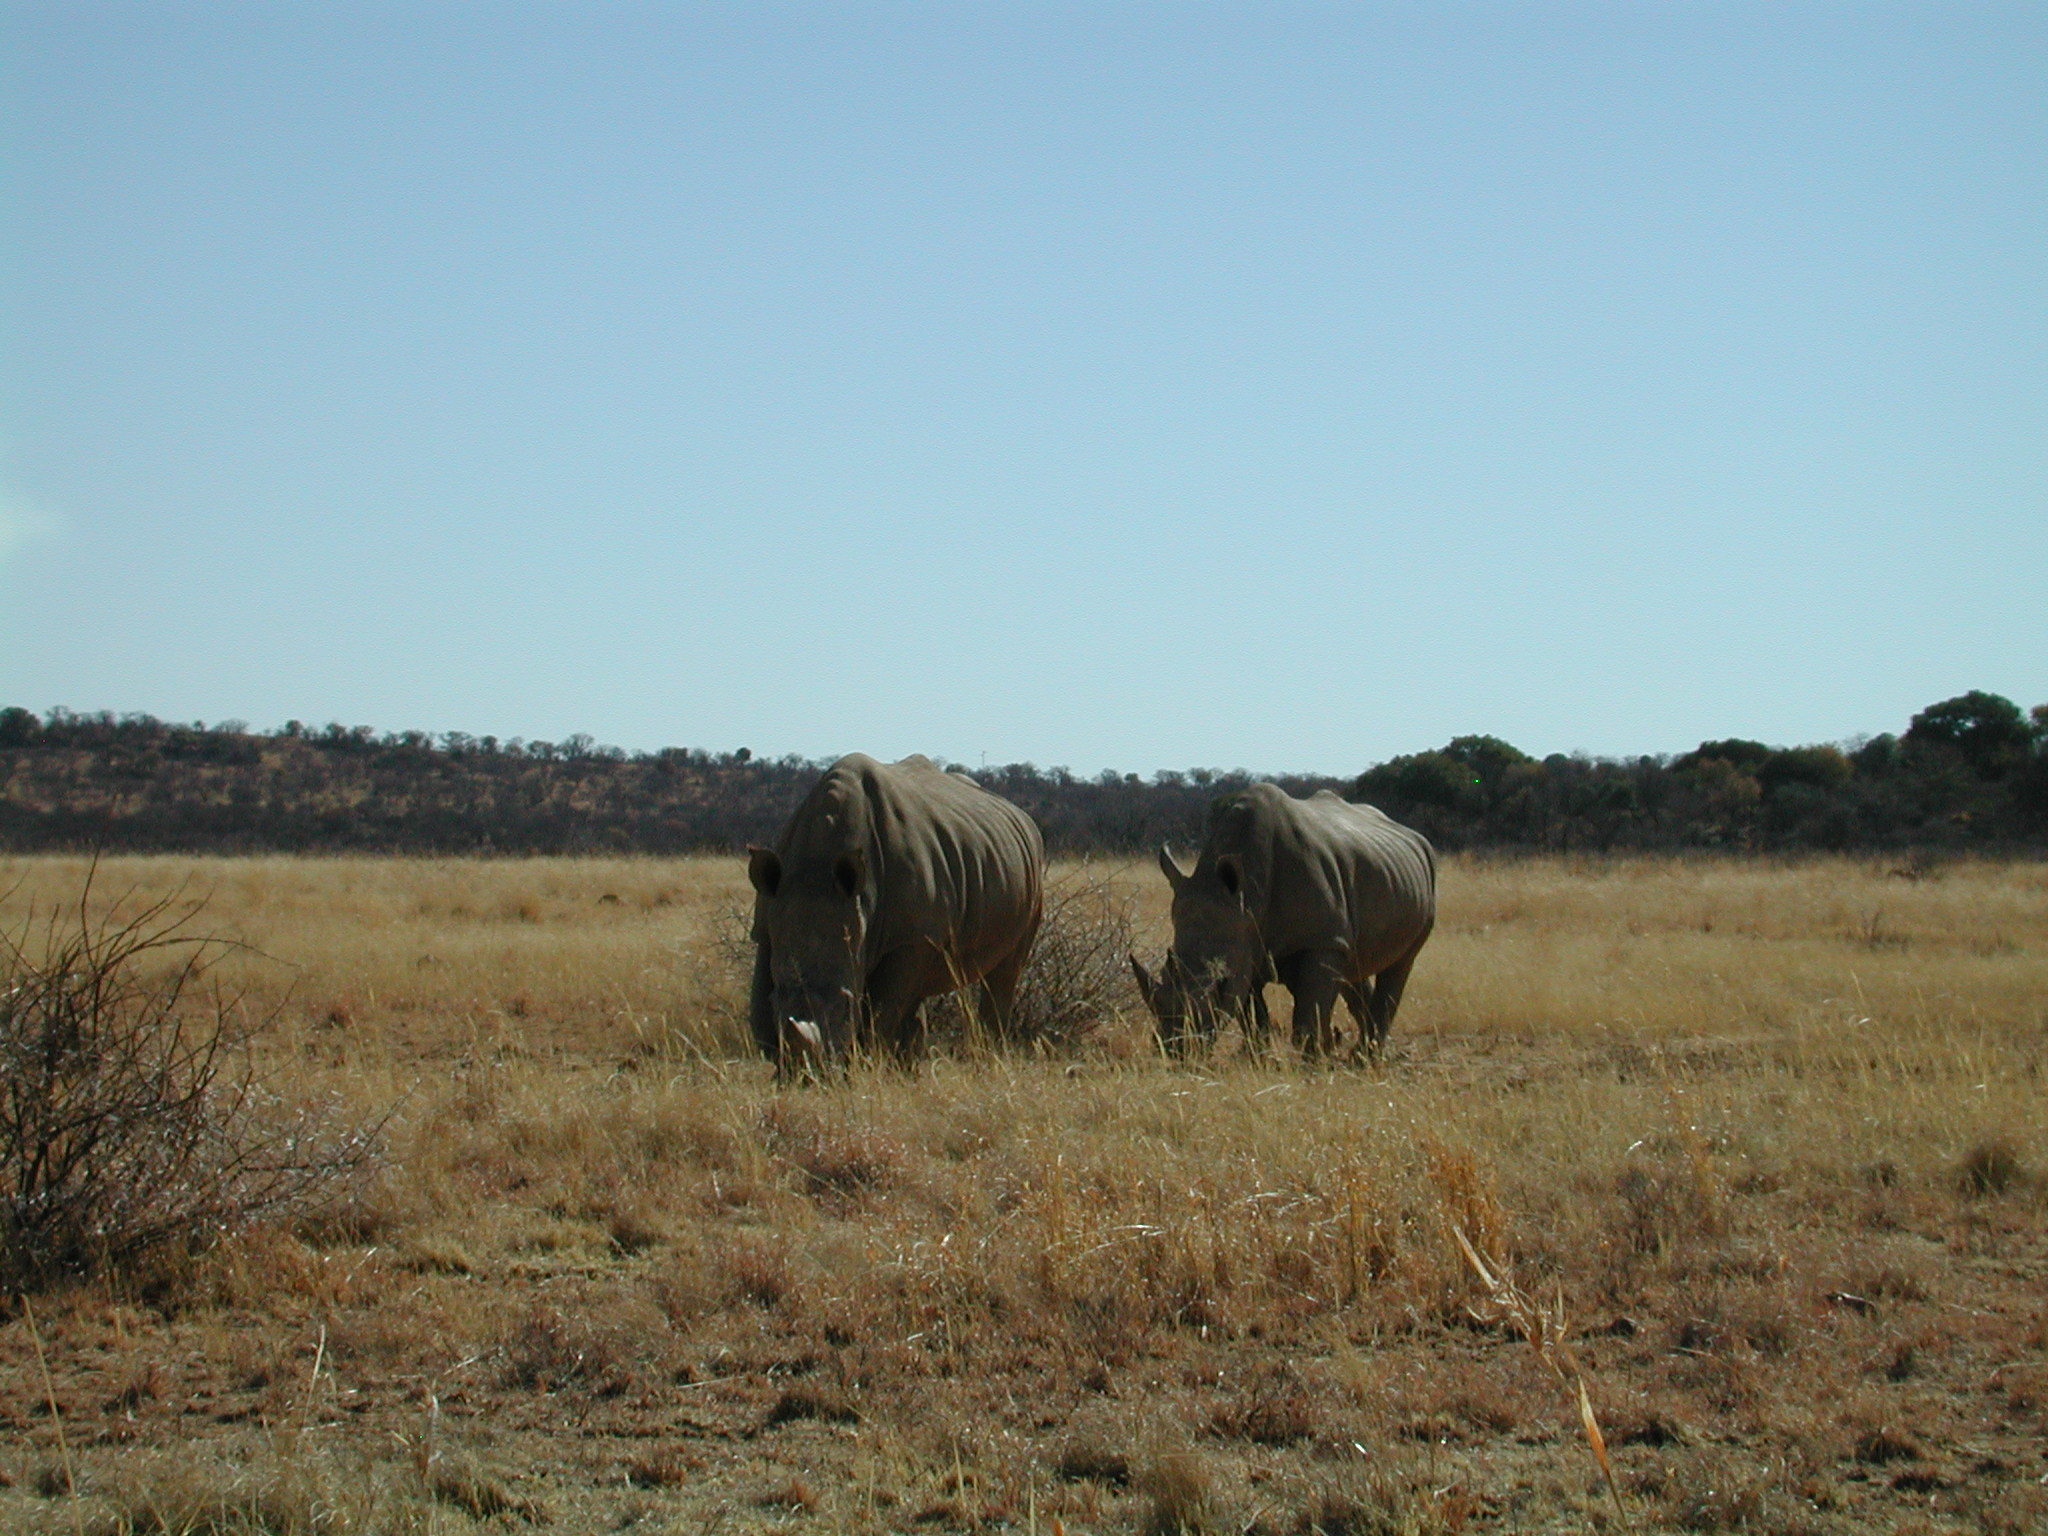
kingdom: Animalia
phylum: Chordata
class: Mammalia
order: Perissodactyla
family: Rhinocerotidae
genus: Ceratotherium
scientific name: Ceratotherium simum
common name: White rhinoceros
